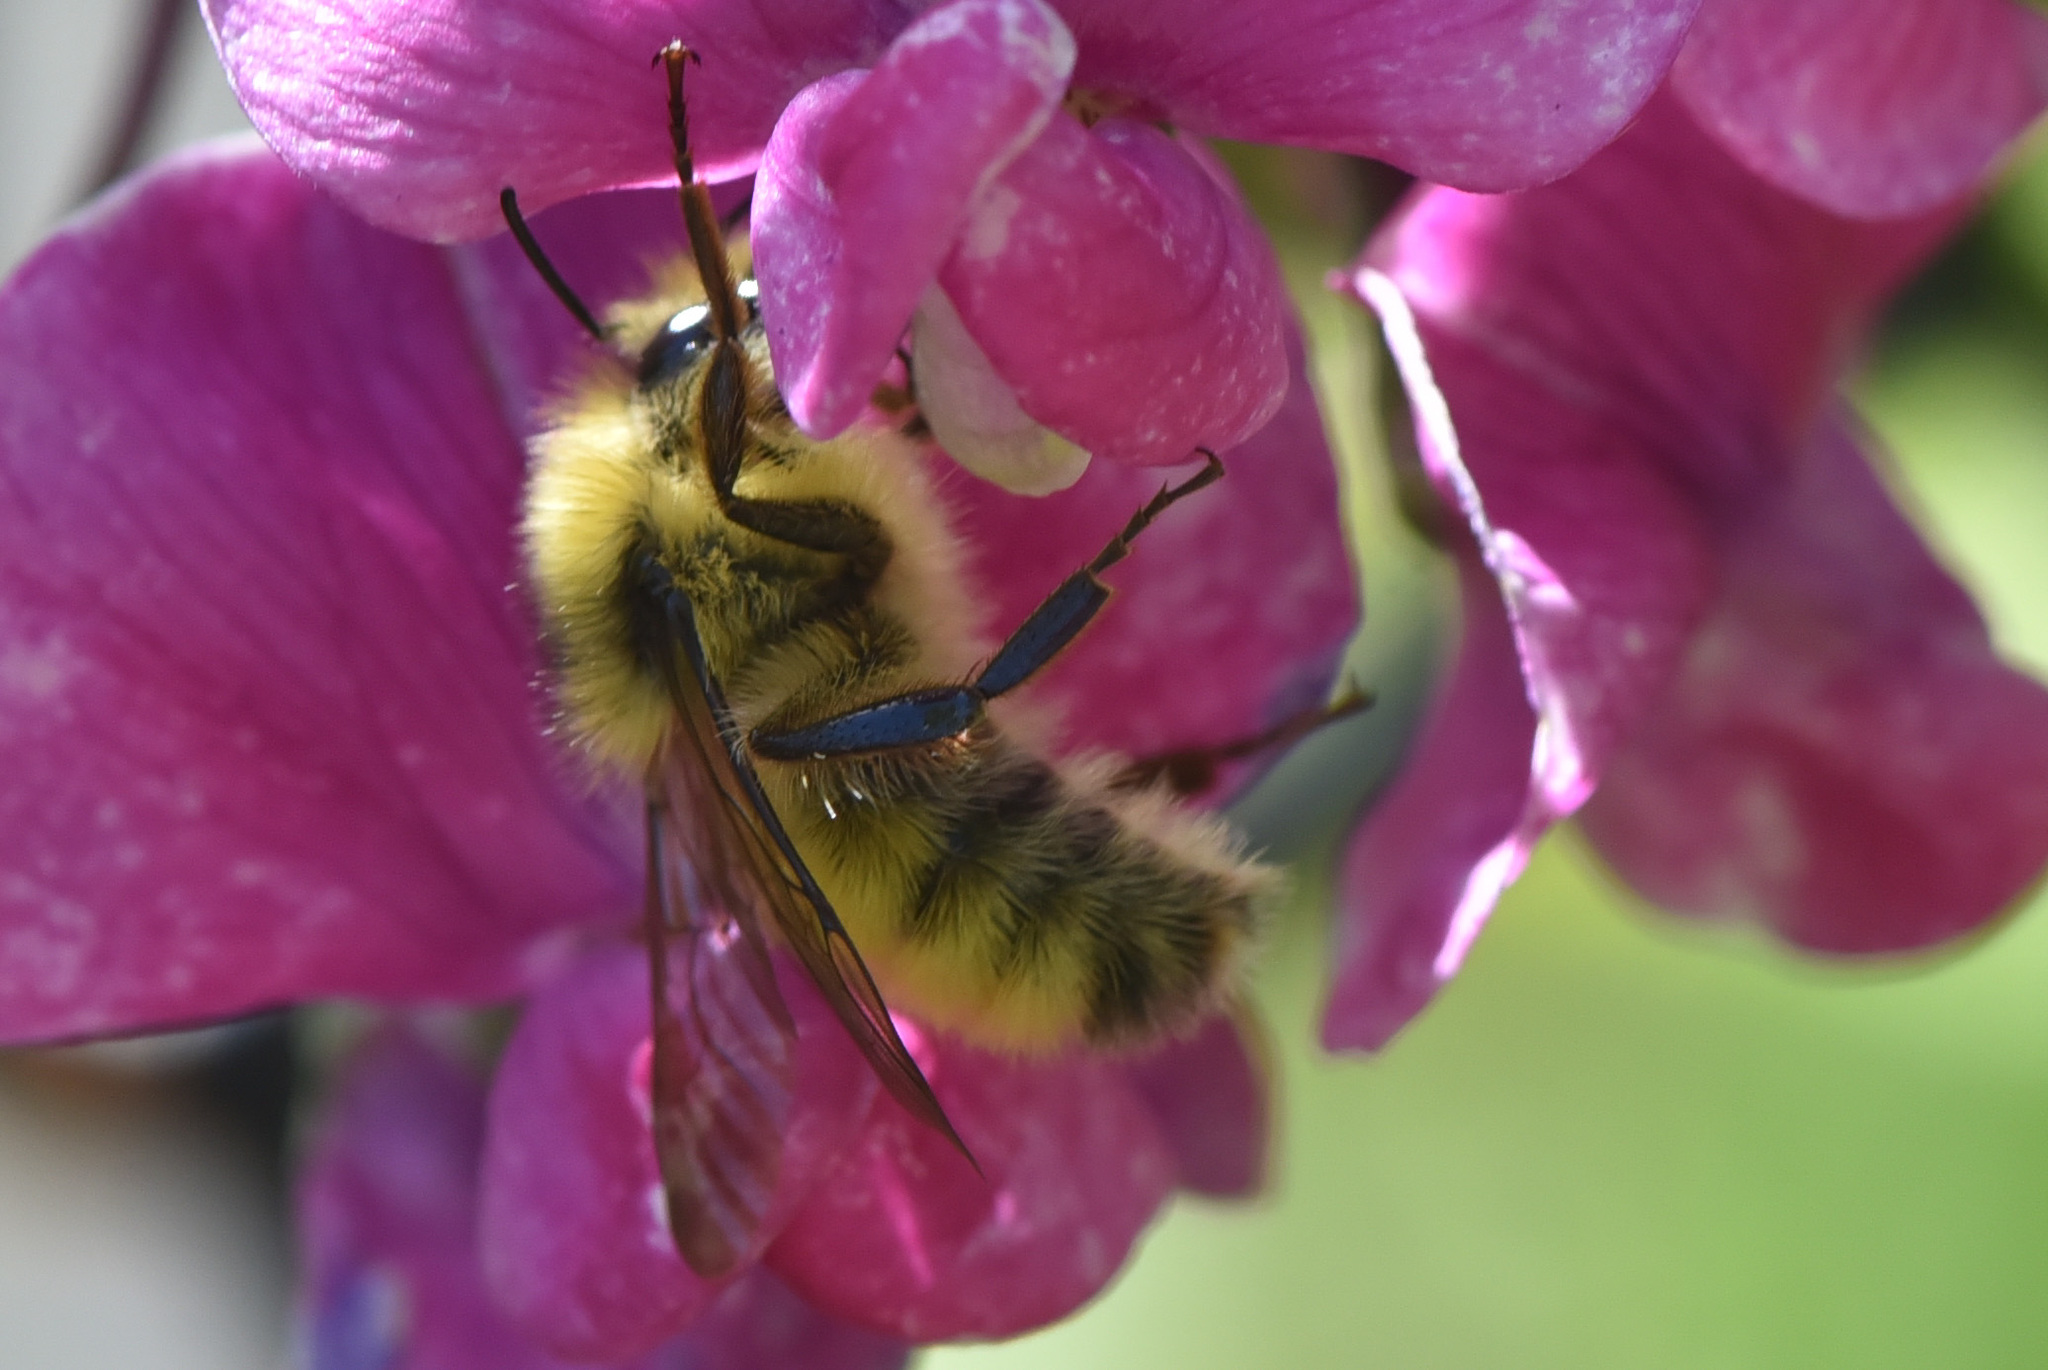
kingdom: Animalia
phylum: Arthropoda
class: Insecta
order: Hymenoptera
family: Apidae
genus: Bombus
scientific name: Bombus flavifrons
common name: Yellow head bumble bee
